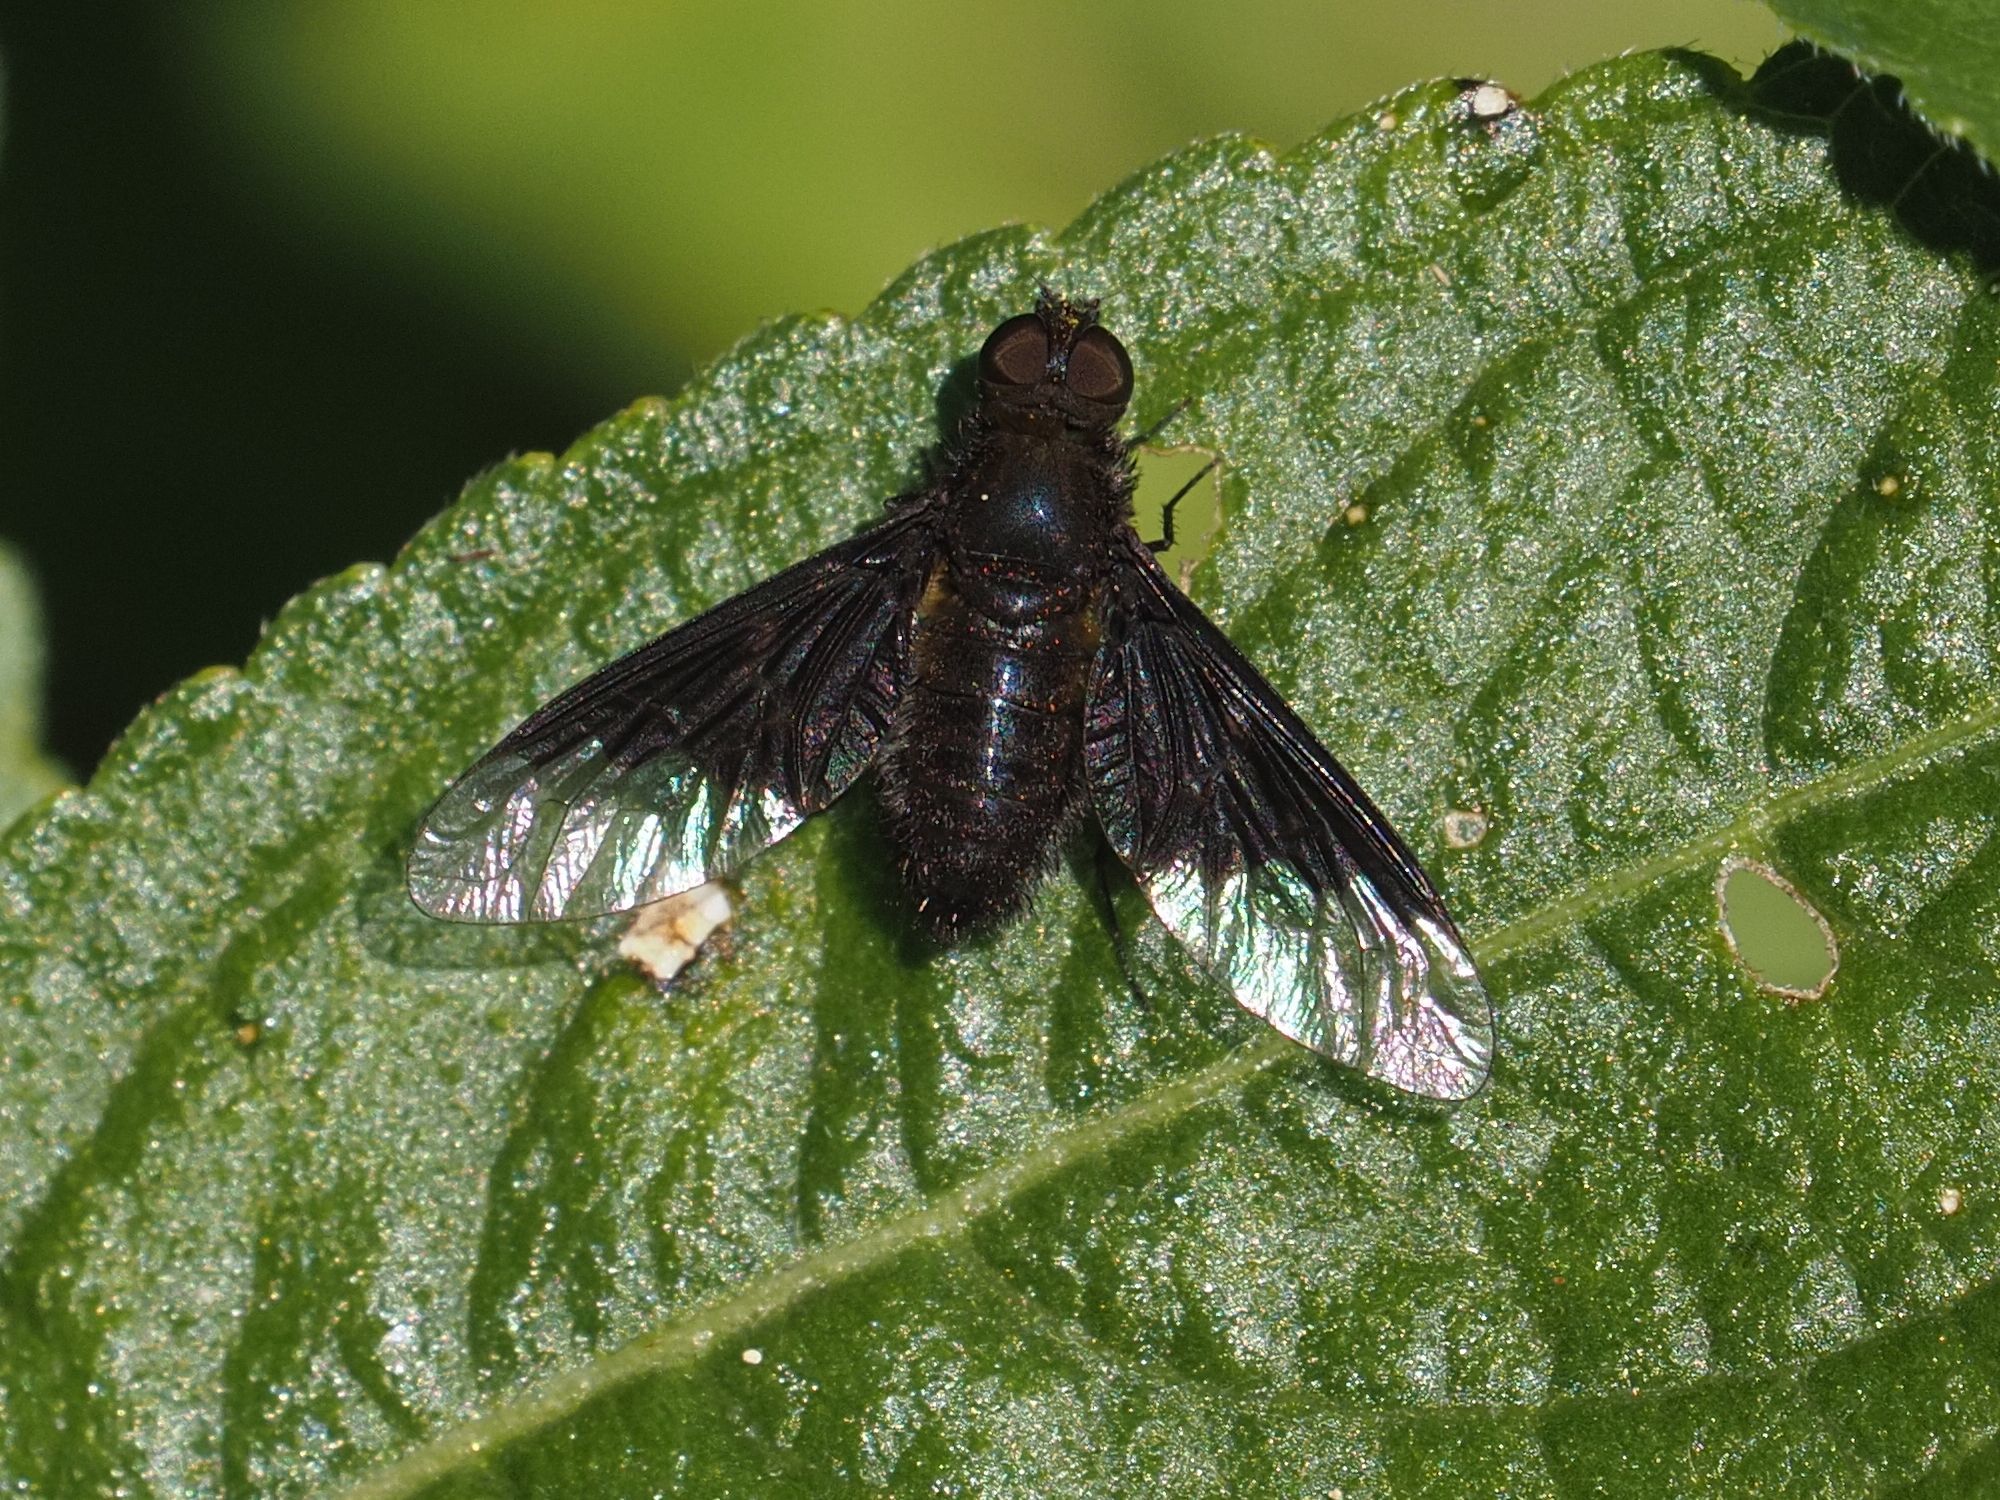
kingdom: Animalia
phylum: Arthropoda
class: Insecta
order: Diptera
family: Bombyliidae
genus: Hemipenthes
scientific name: Hemipenthes morio
